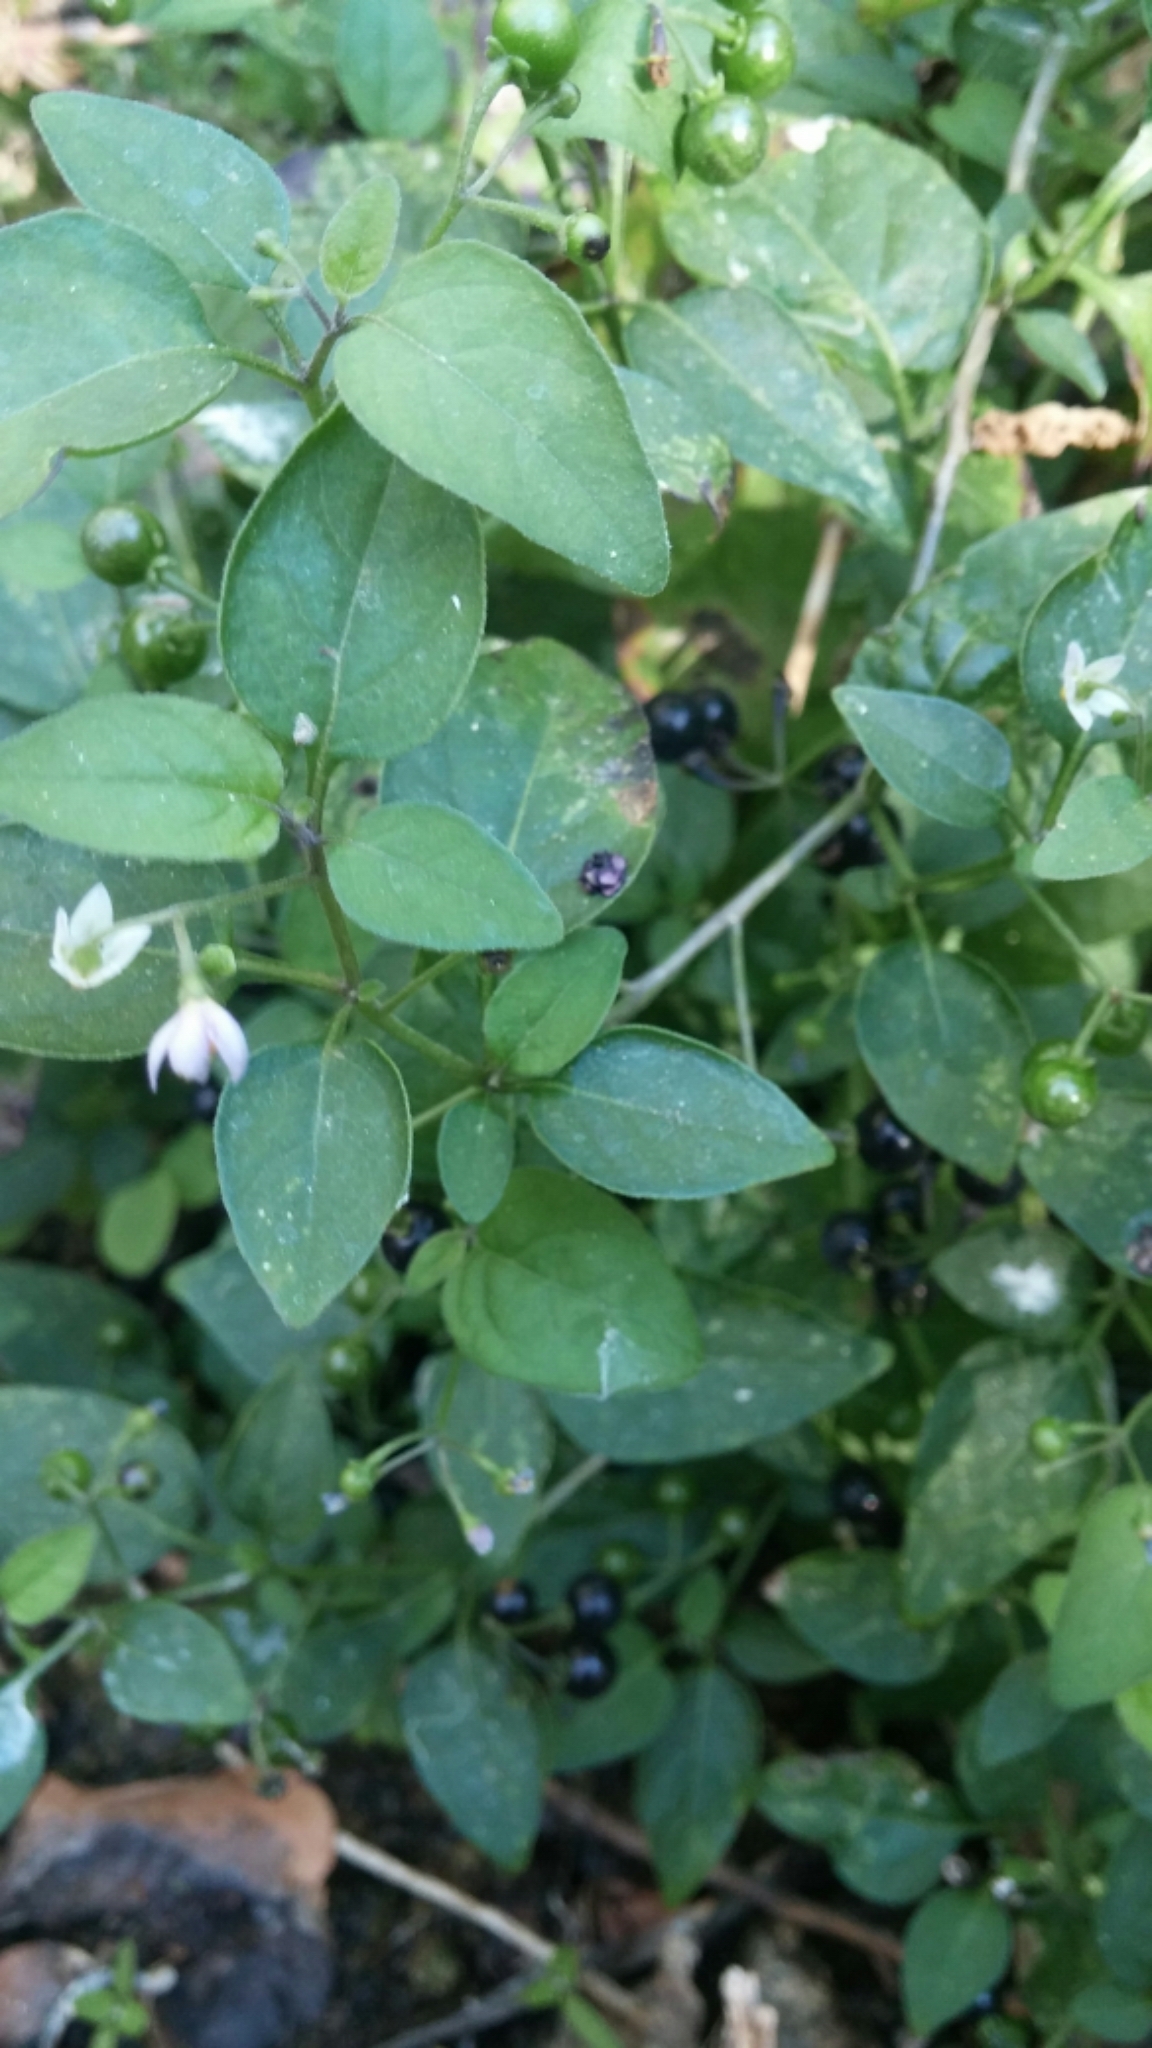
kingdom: Plantae
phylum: Tracheophyta
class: Magnoliopsida
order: Solanales
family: Solanaceae
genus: Solanum
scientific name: Solanum americanum
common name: American black nightshade
